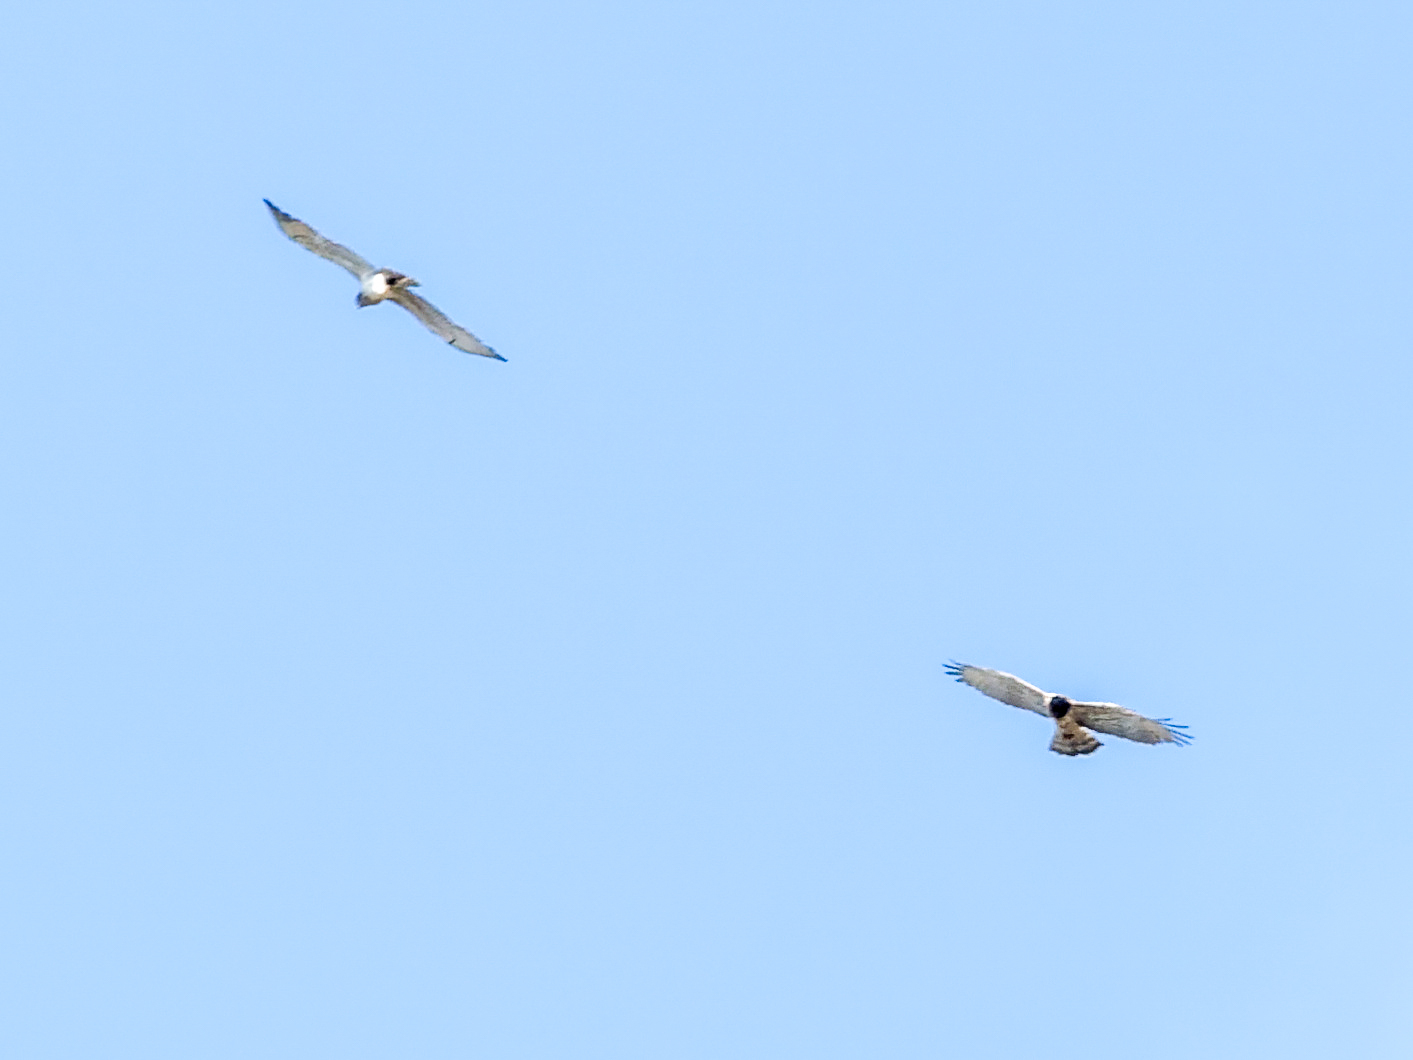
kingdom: Animalia
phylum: Chordata
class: Aves
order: Accipitriformes
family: Accipitridae
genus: Circaetus
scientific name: Circaetus gallicus
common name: Short-toed snake eagle
